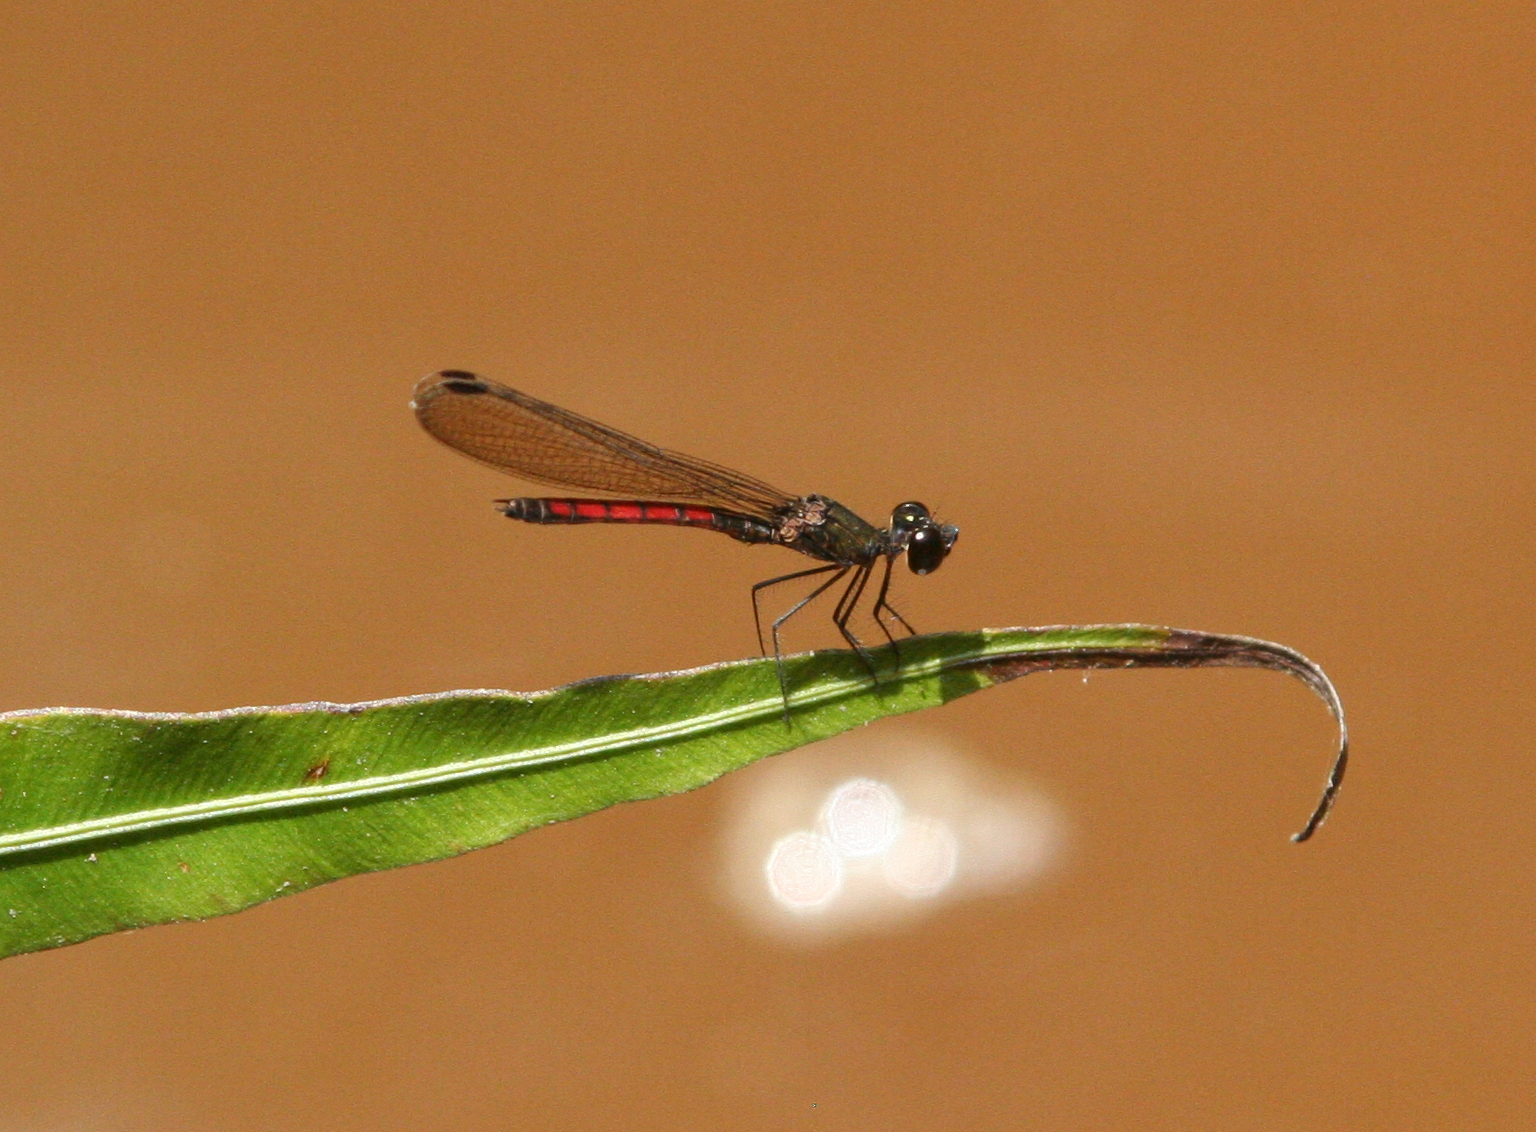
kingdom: Animalia
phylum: Arthropoda
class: Insecta
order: Odonata
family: Chlorocyphidae
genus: Libellago
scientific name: Libellago hyalina
